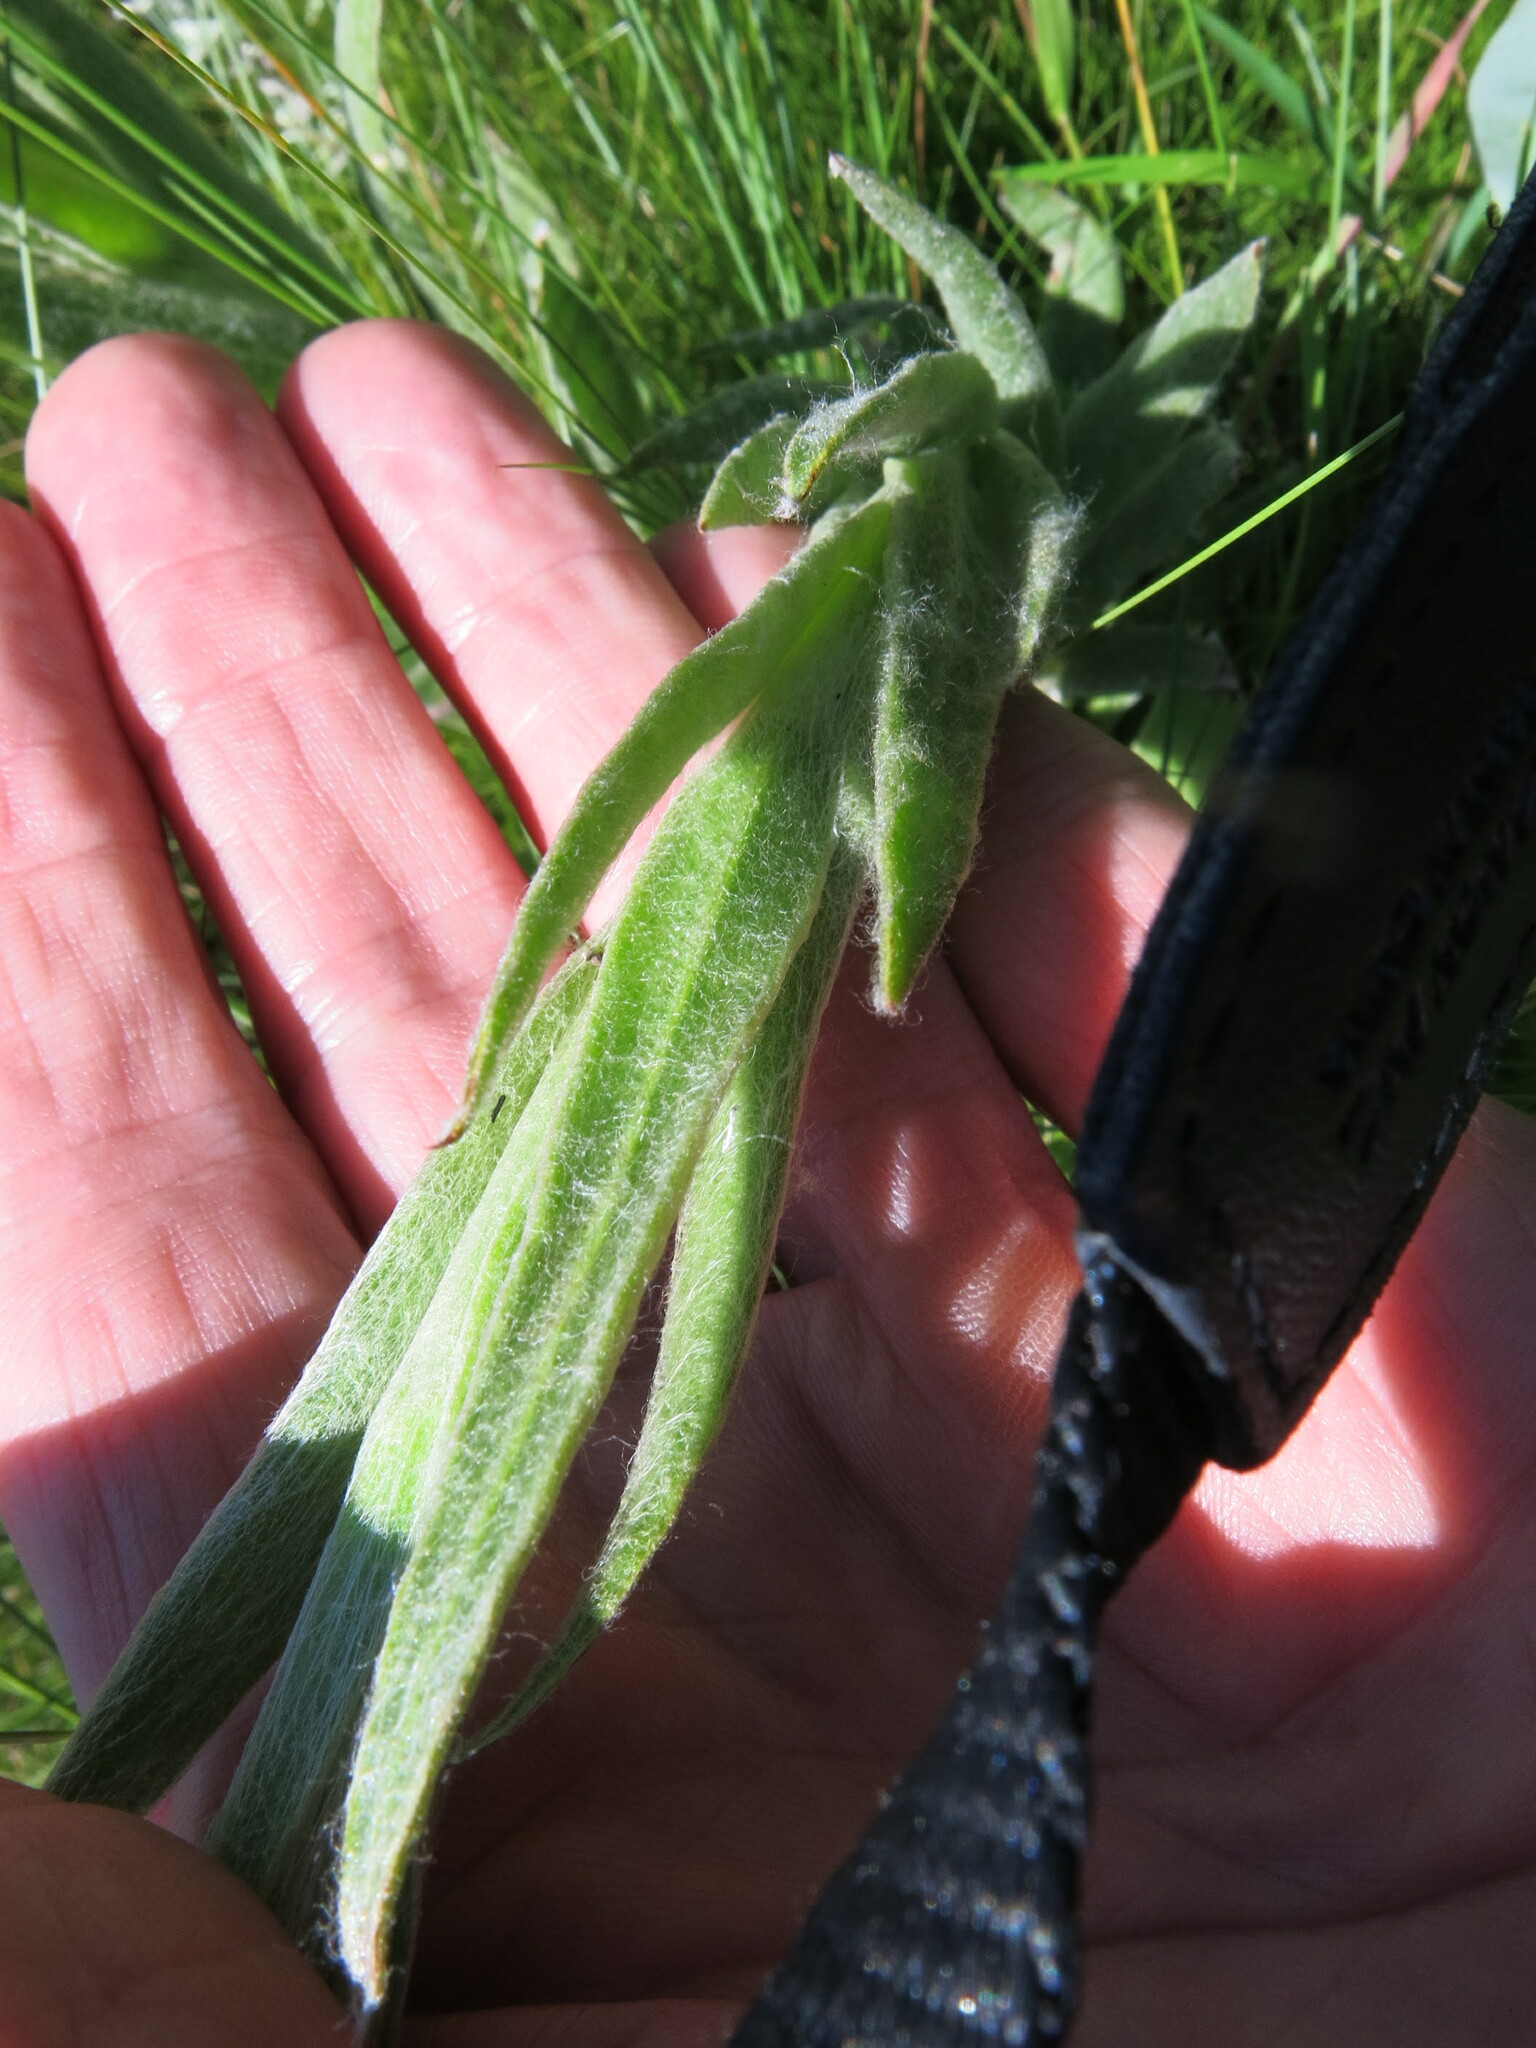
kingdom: Plantae
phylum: Tracheophyta
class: Magnoliopsida
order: Asterales
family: Asteraceae
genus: Helichrysum
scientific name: Helichrysum auriceps
